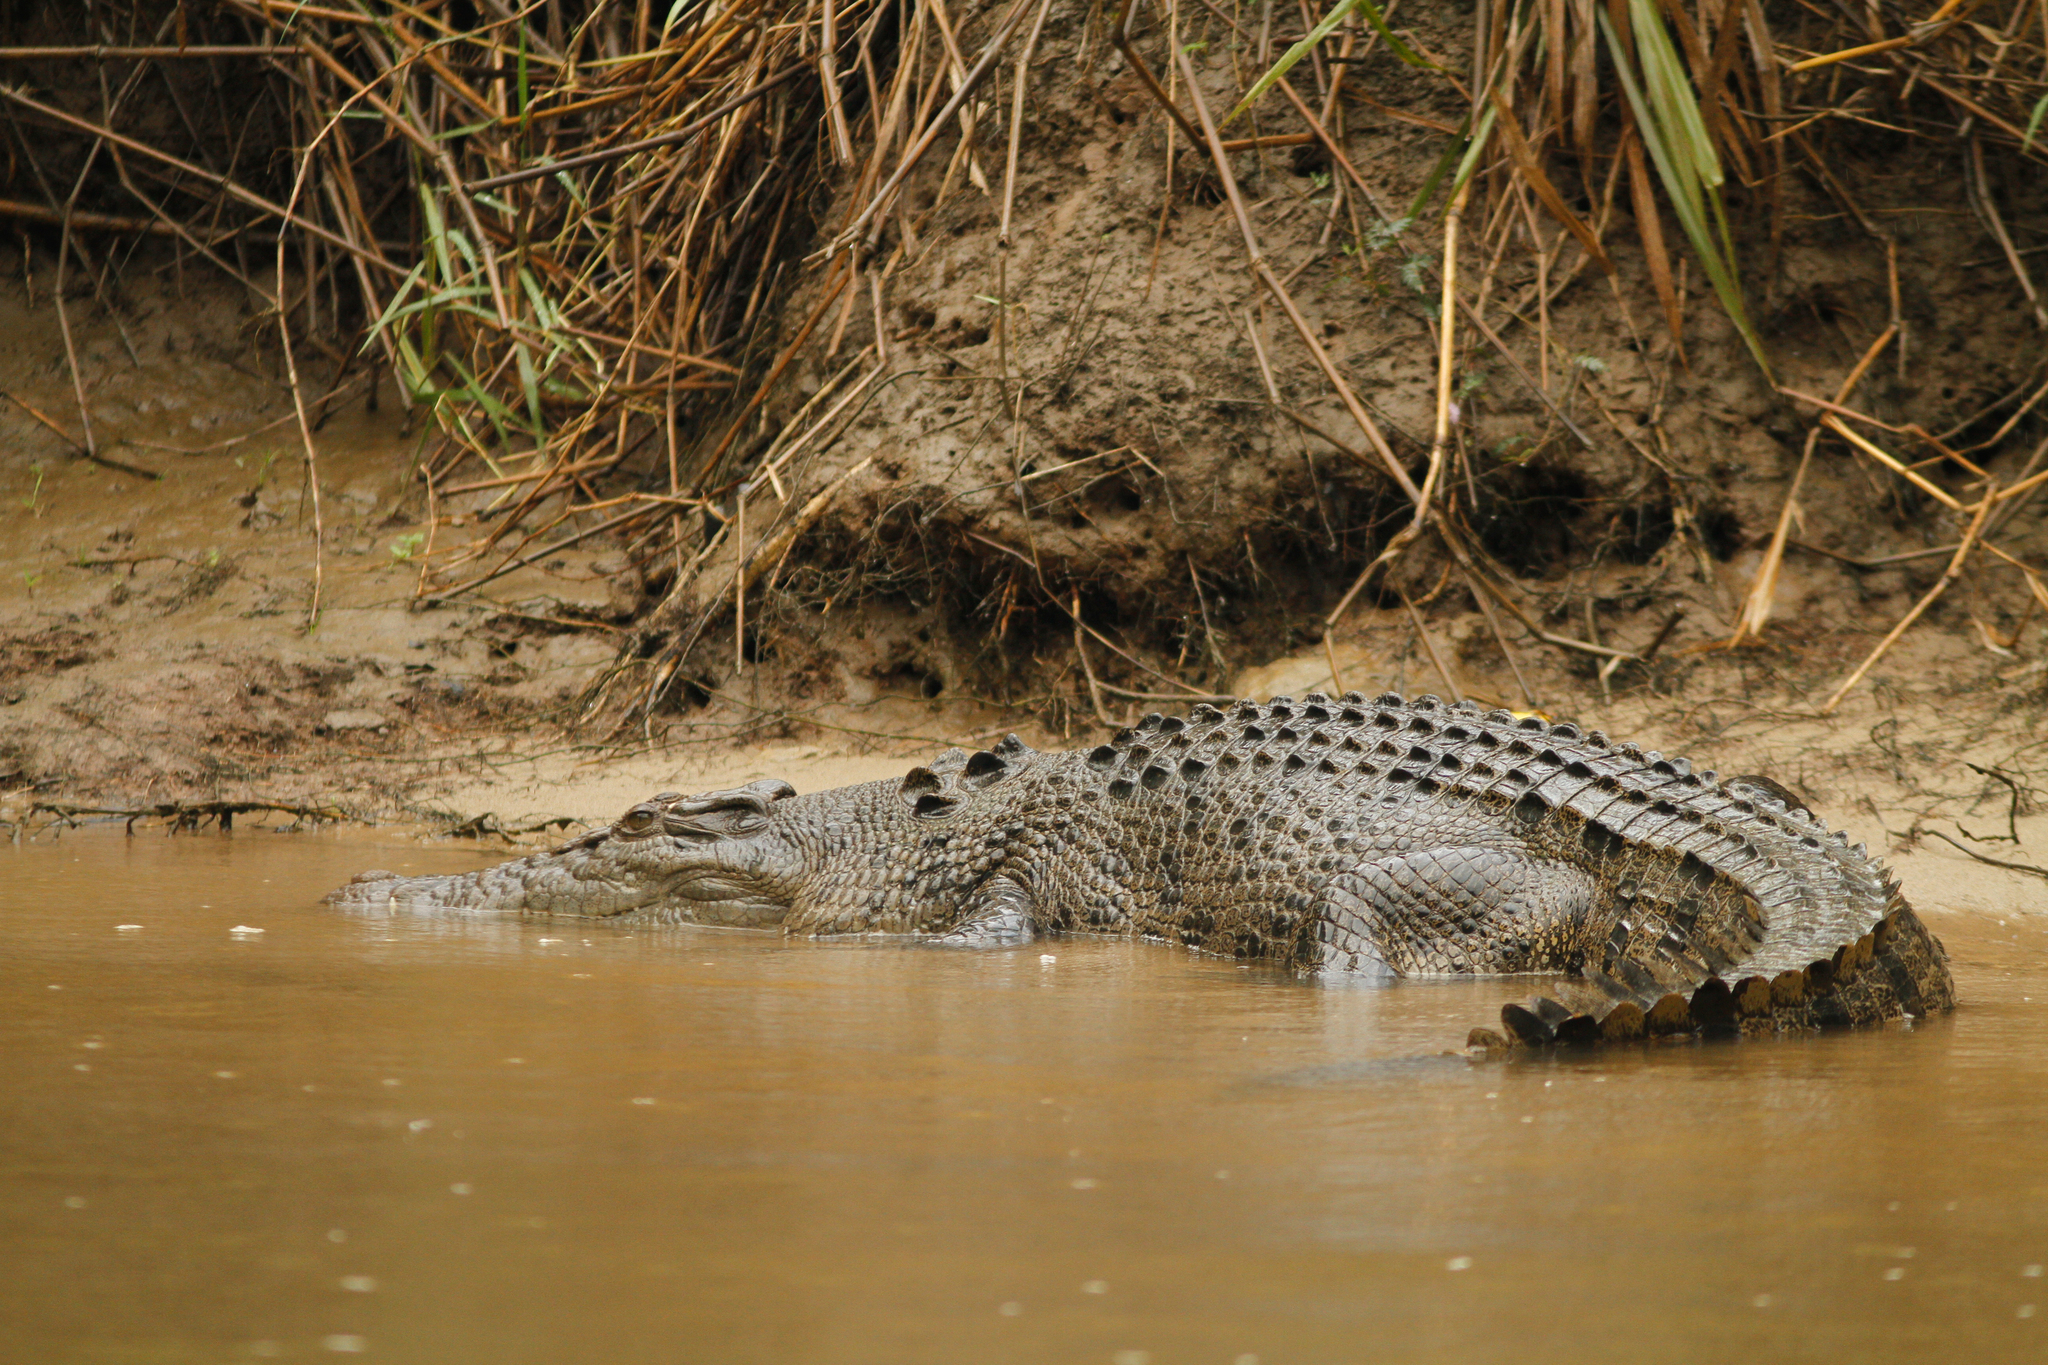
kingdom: Animalia
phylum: Chordata
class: Crocodylia
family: Crocodylidae
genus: Crocodylus
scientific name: Crocodylus porosus
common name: Saltwater crocodile
